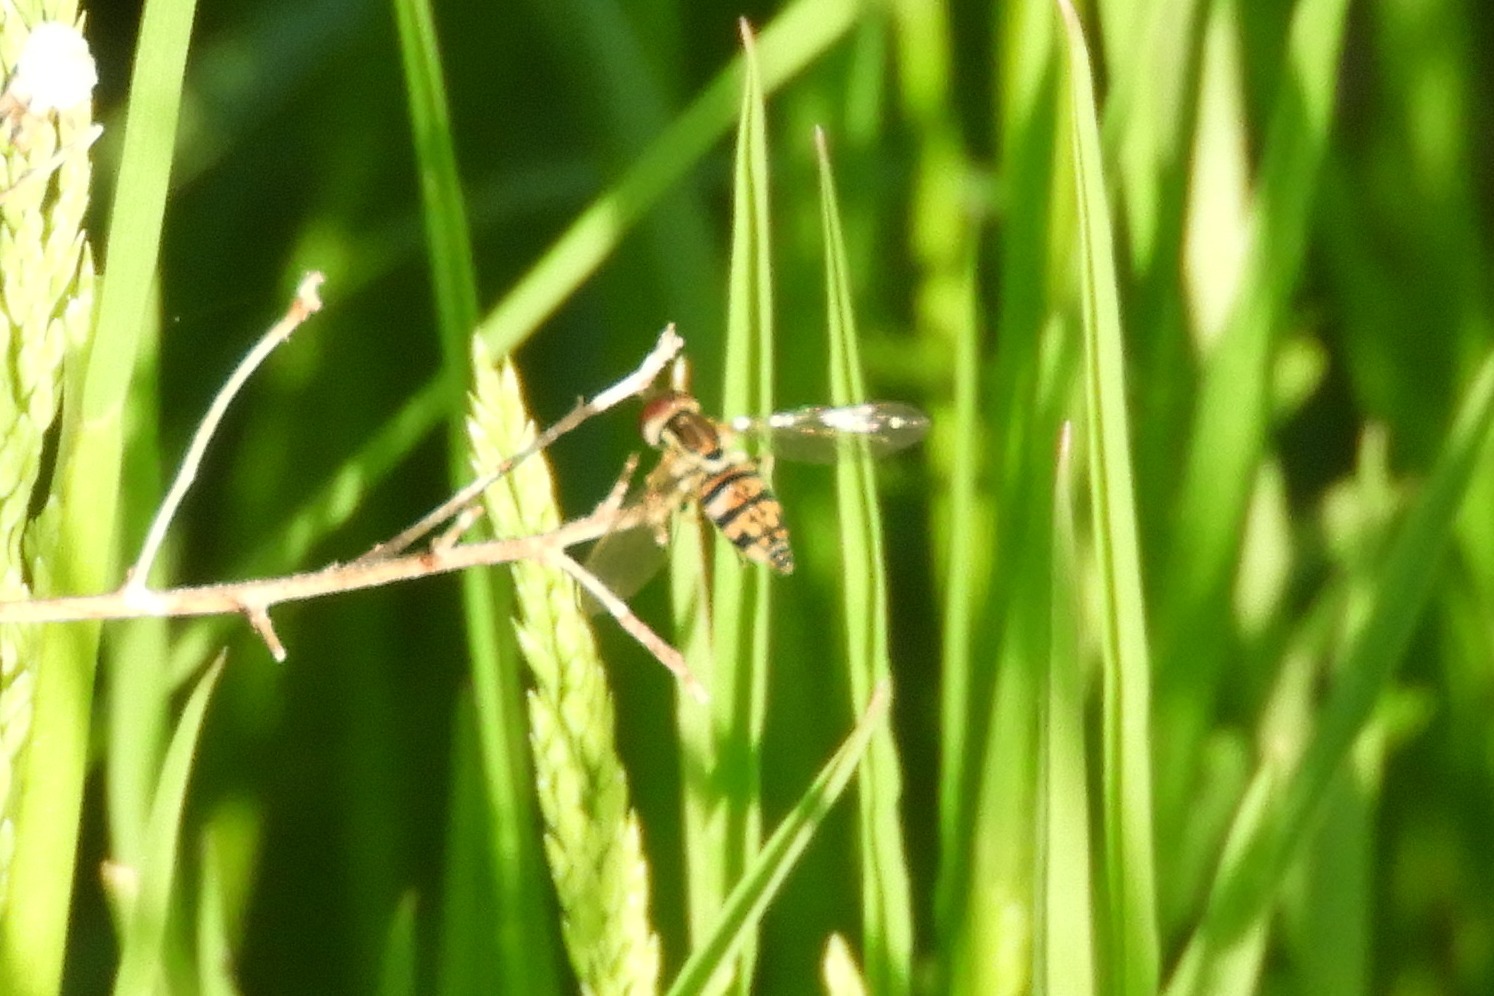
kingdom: Animalia
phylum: Arthropoda
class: Insecta
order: Diptera
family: Syrphidae
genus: Toxomerus
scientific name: Toxomerus geminatus
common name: Eastern calligrapher
